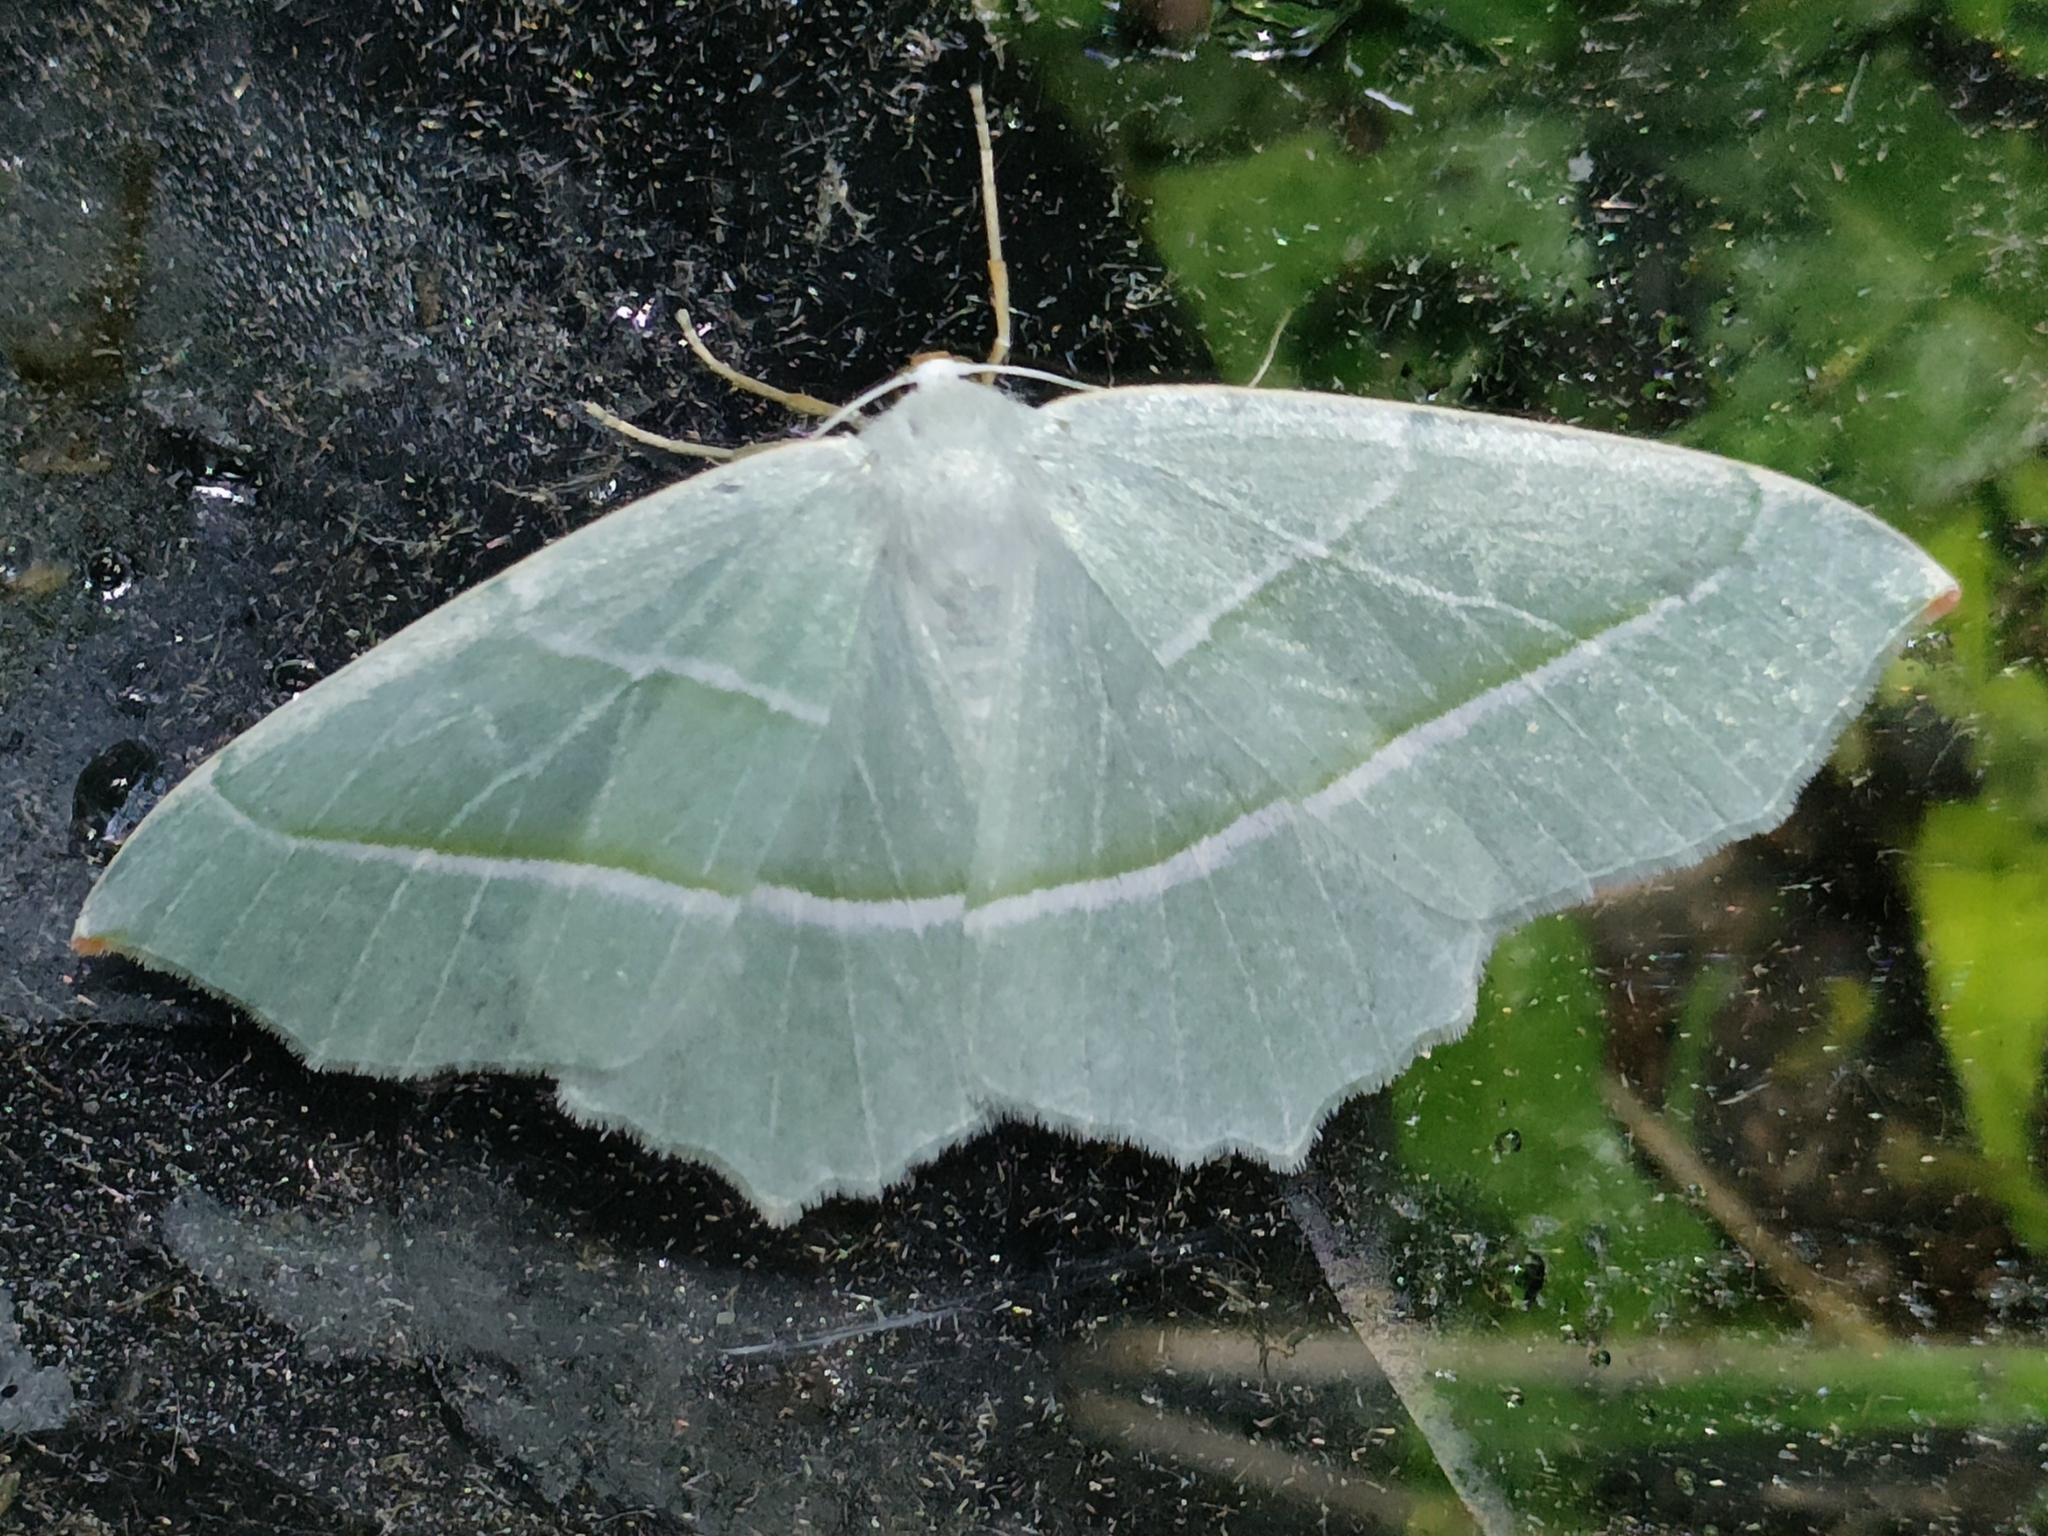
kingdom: Animalia
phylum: Arthropoda
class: Insecta
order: Lepidoptera
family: Geometridae
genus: Campaea
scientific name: Campaea margaritaria
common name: Light emerald
